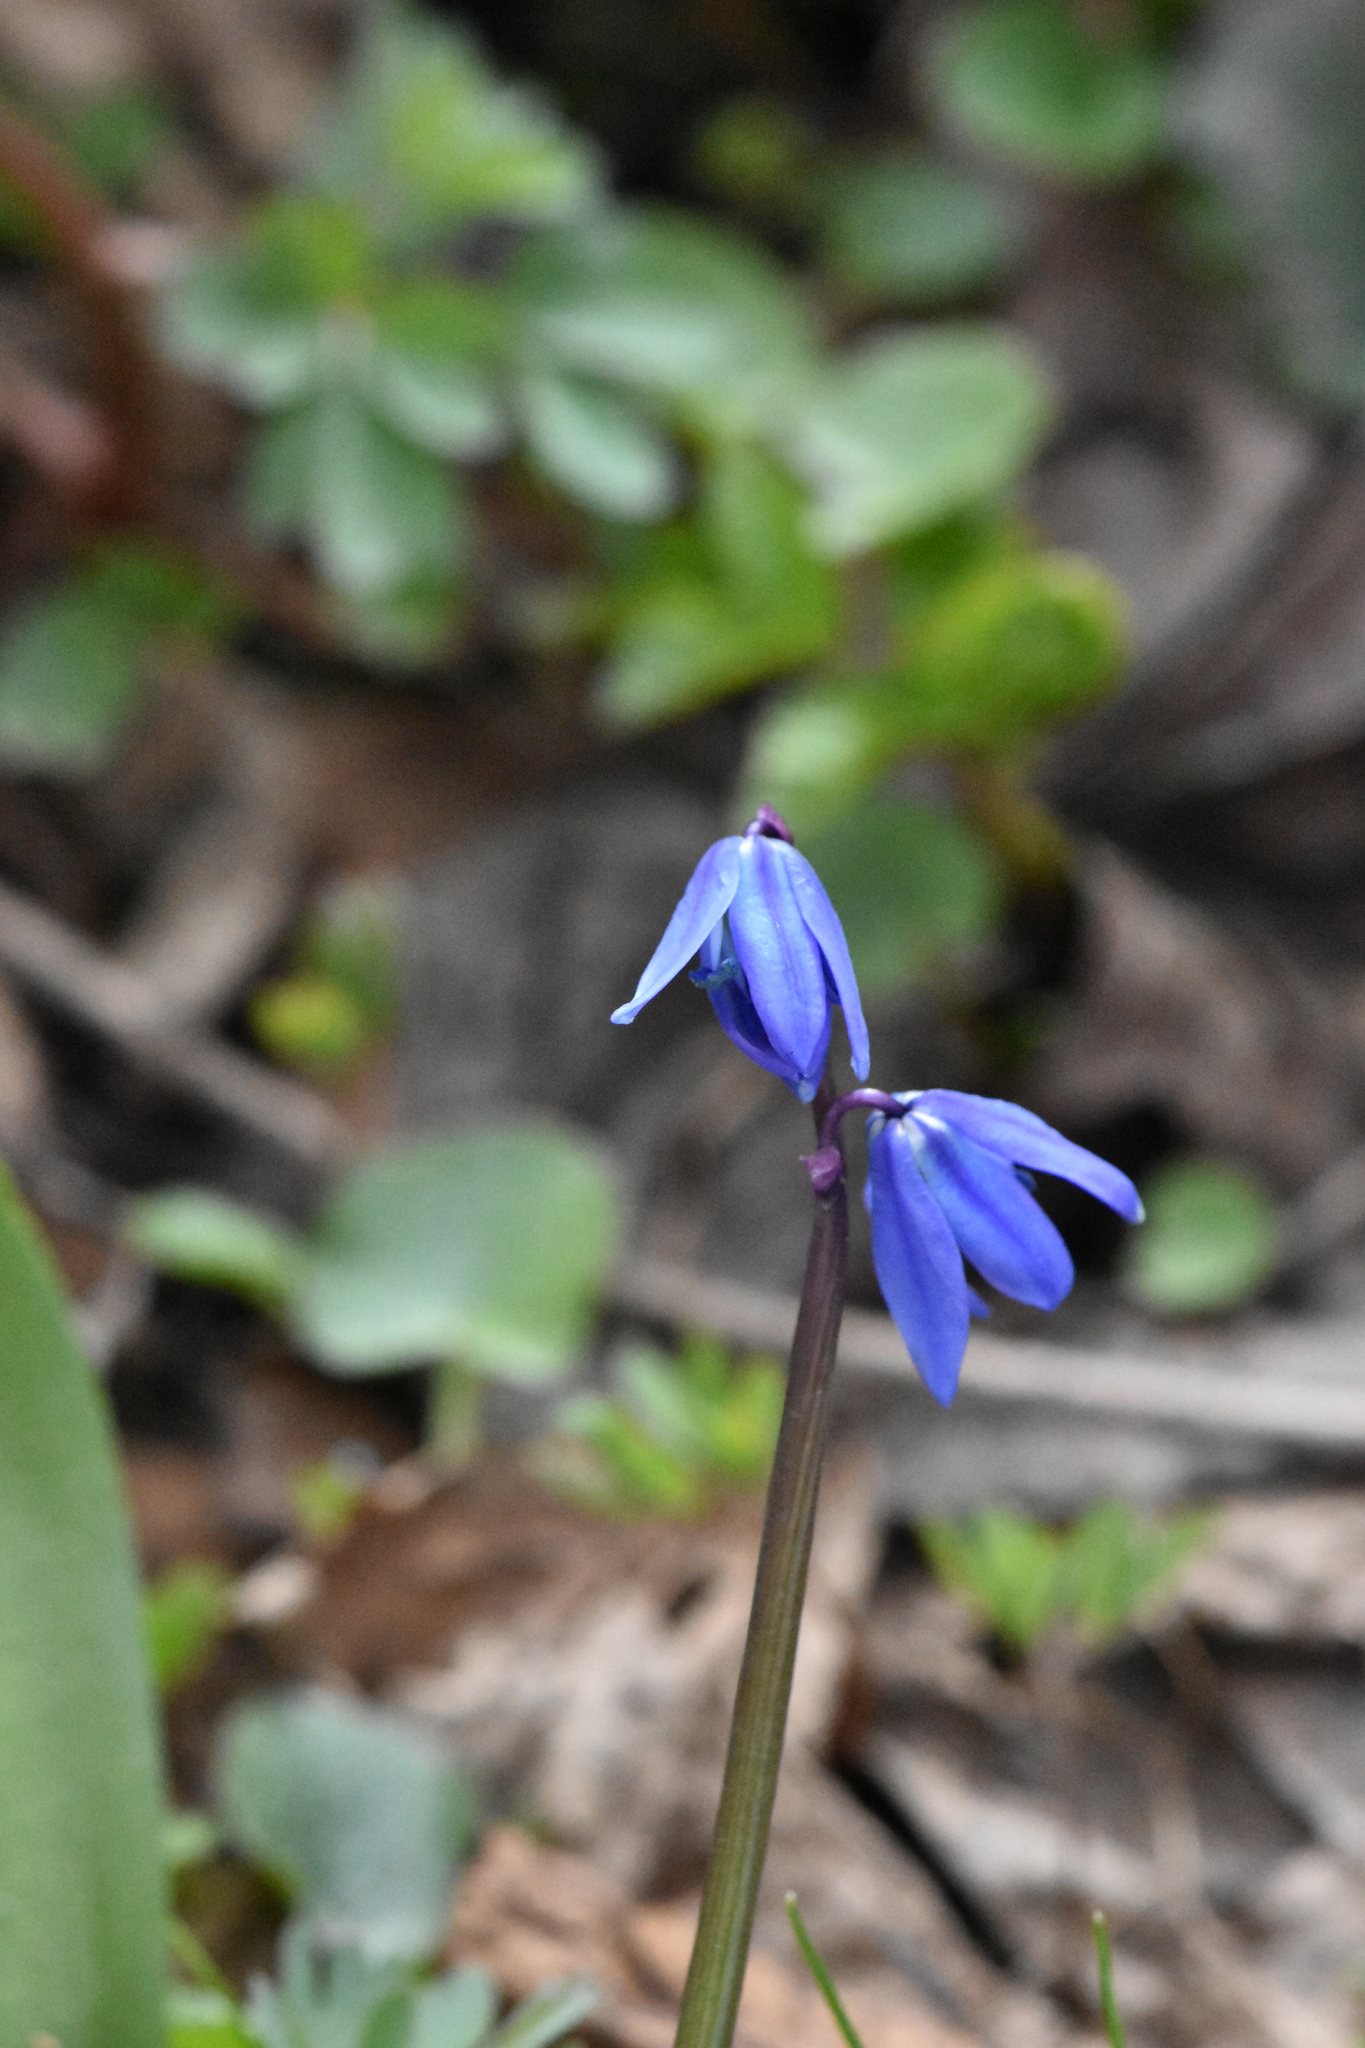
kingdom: Plantae
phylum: Tracheophyta
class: Liliopsida
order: Asparagales
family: Asparagaceae
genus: Scilla
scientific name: Scilla siberica
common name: Siberian squill
